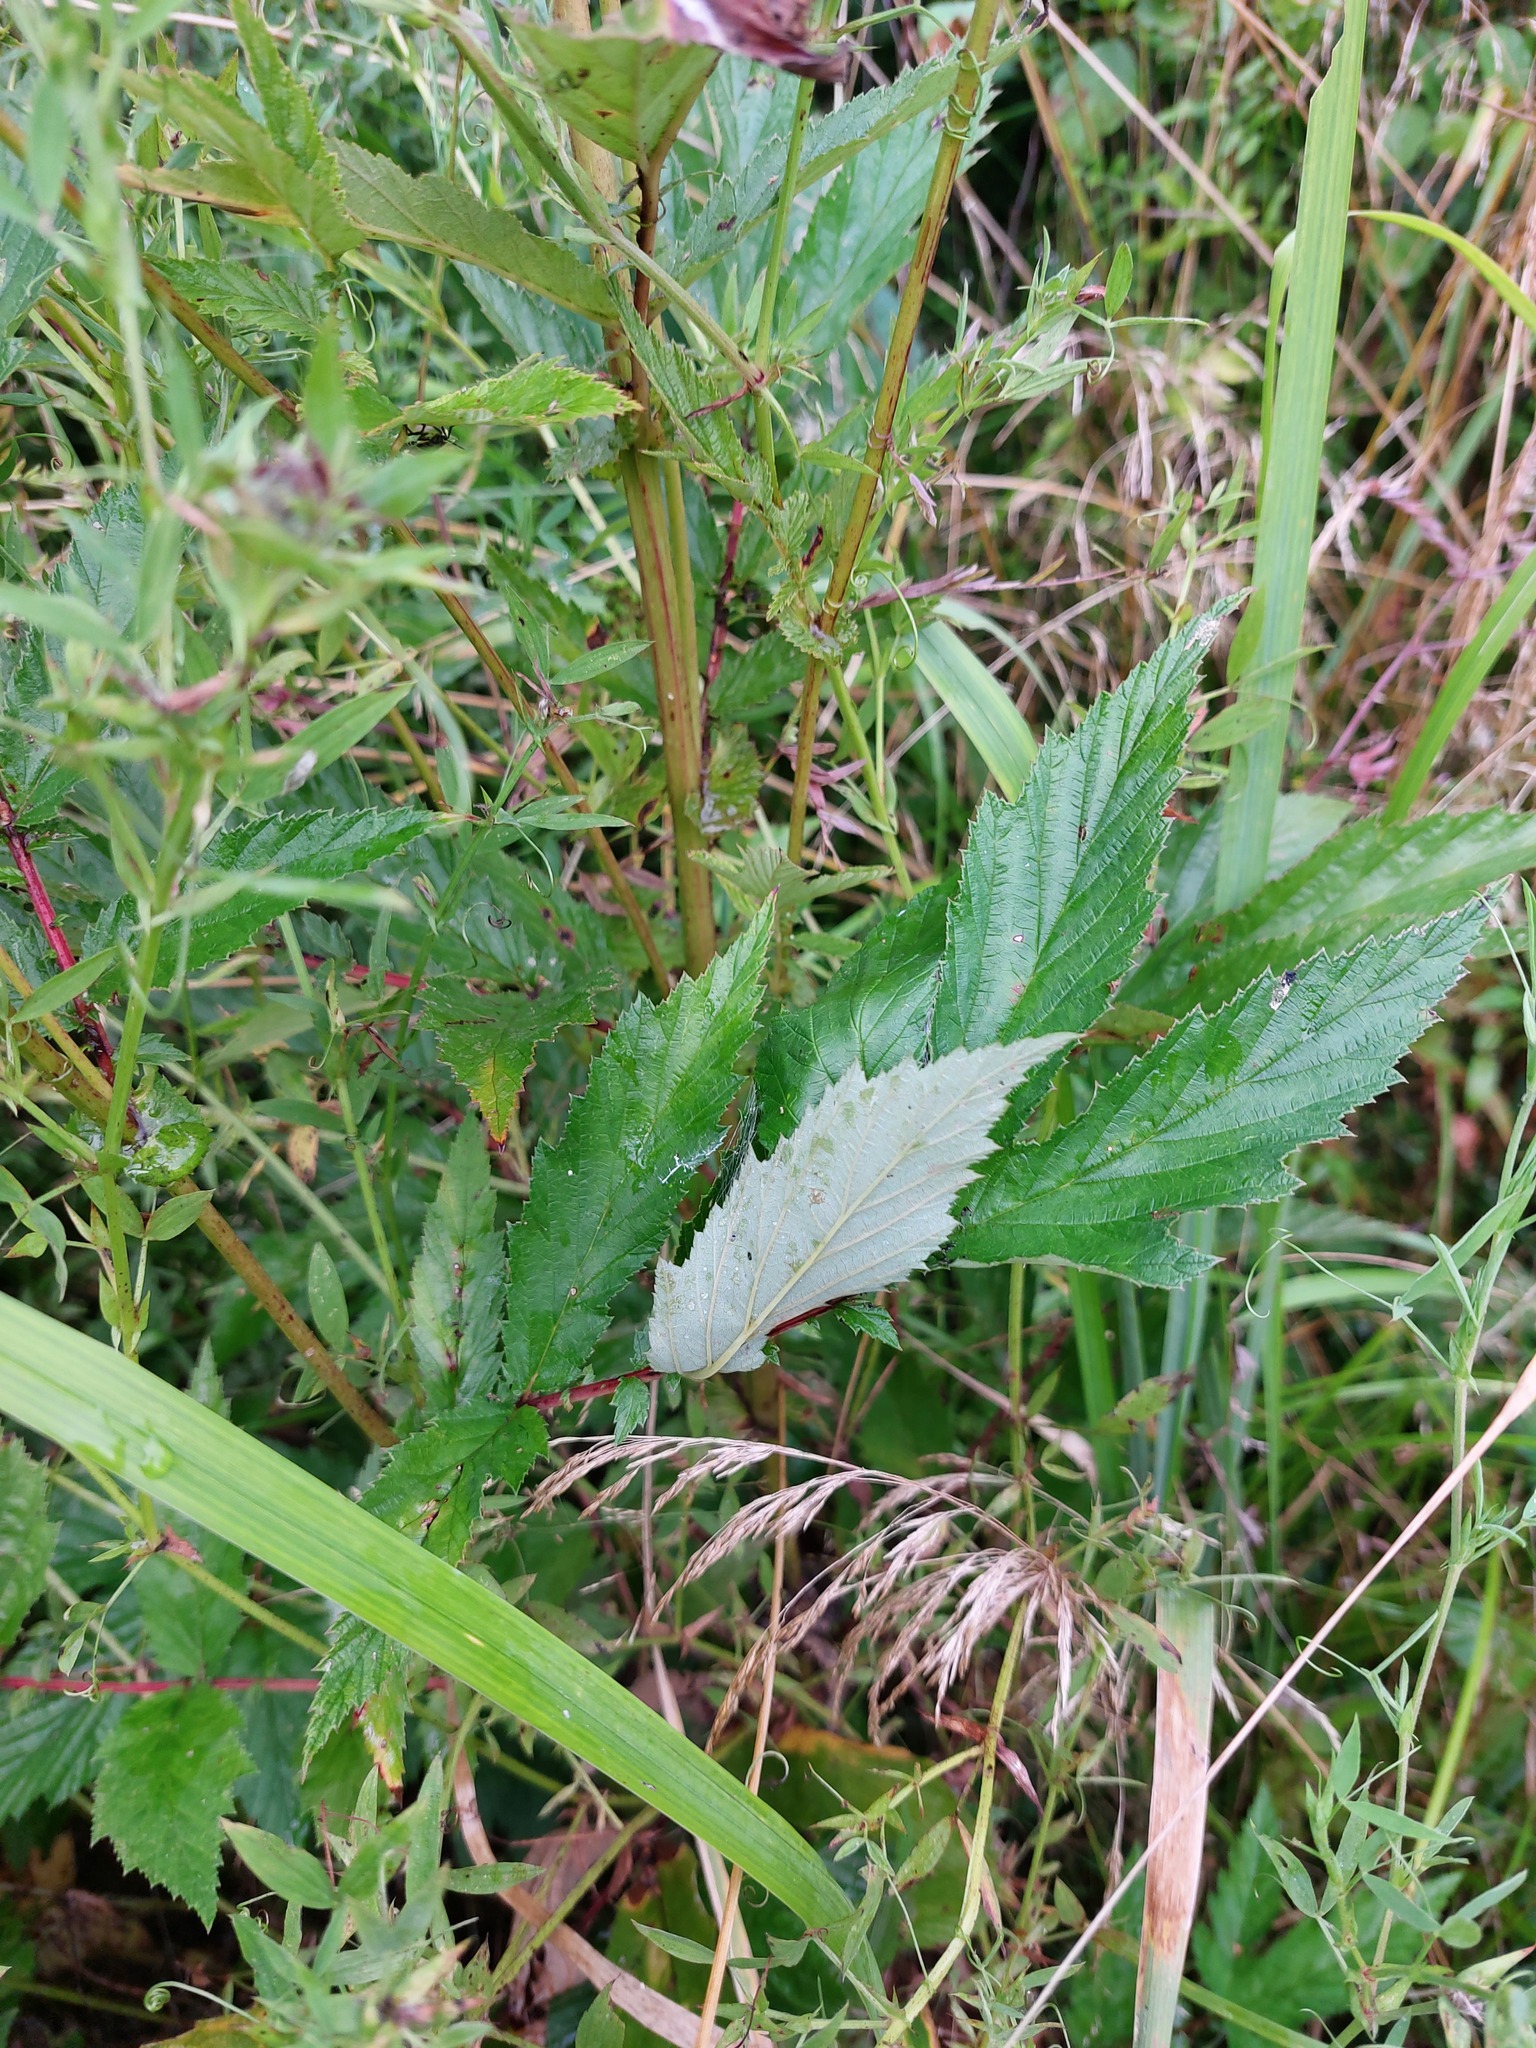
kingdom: Plantae
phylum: Tracheophyta
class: Magnoliopsida
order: Rosales
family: Rosaceae
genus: Filipendula
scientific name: Filipendula ulmaria
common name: Meadowsweet
